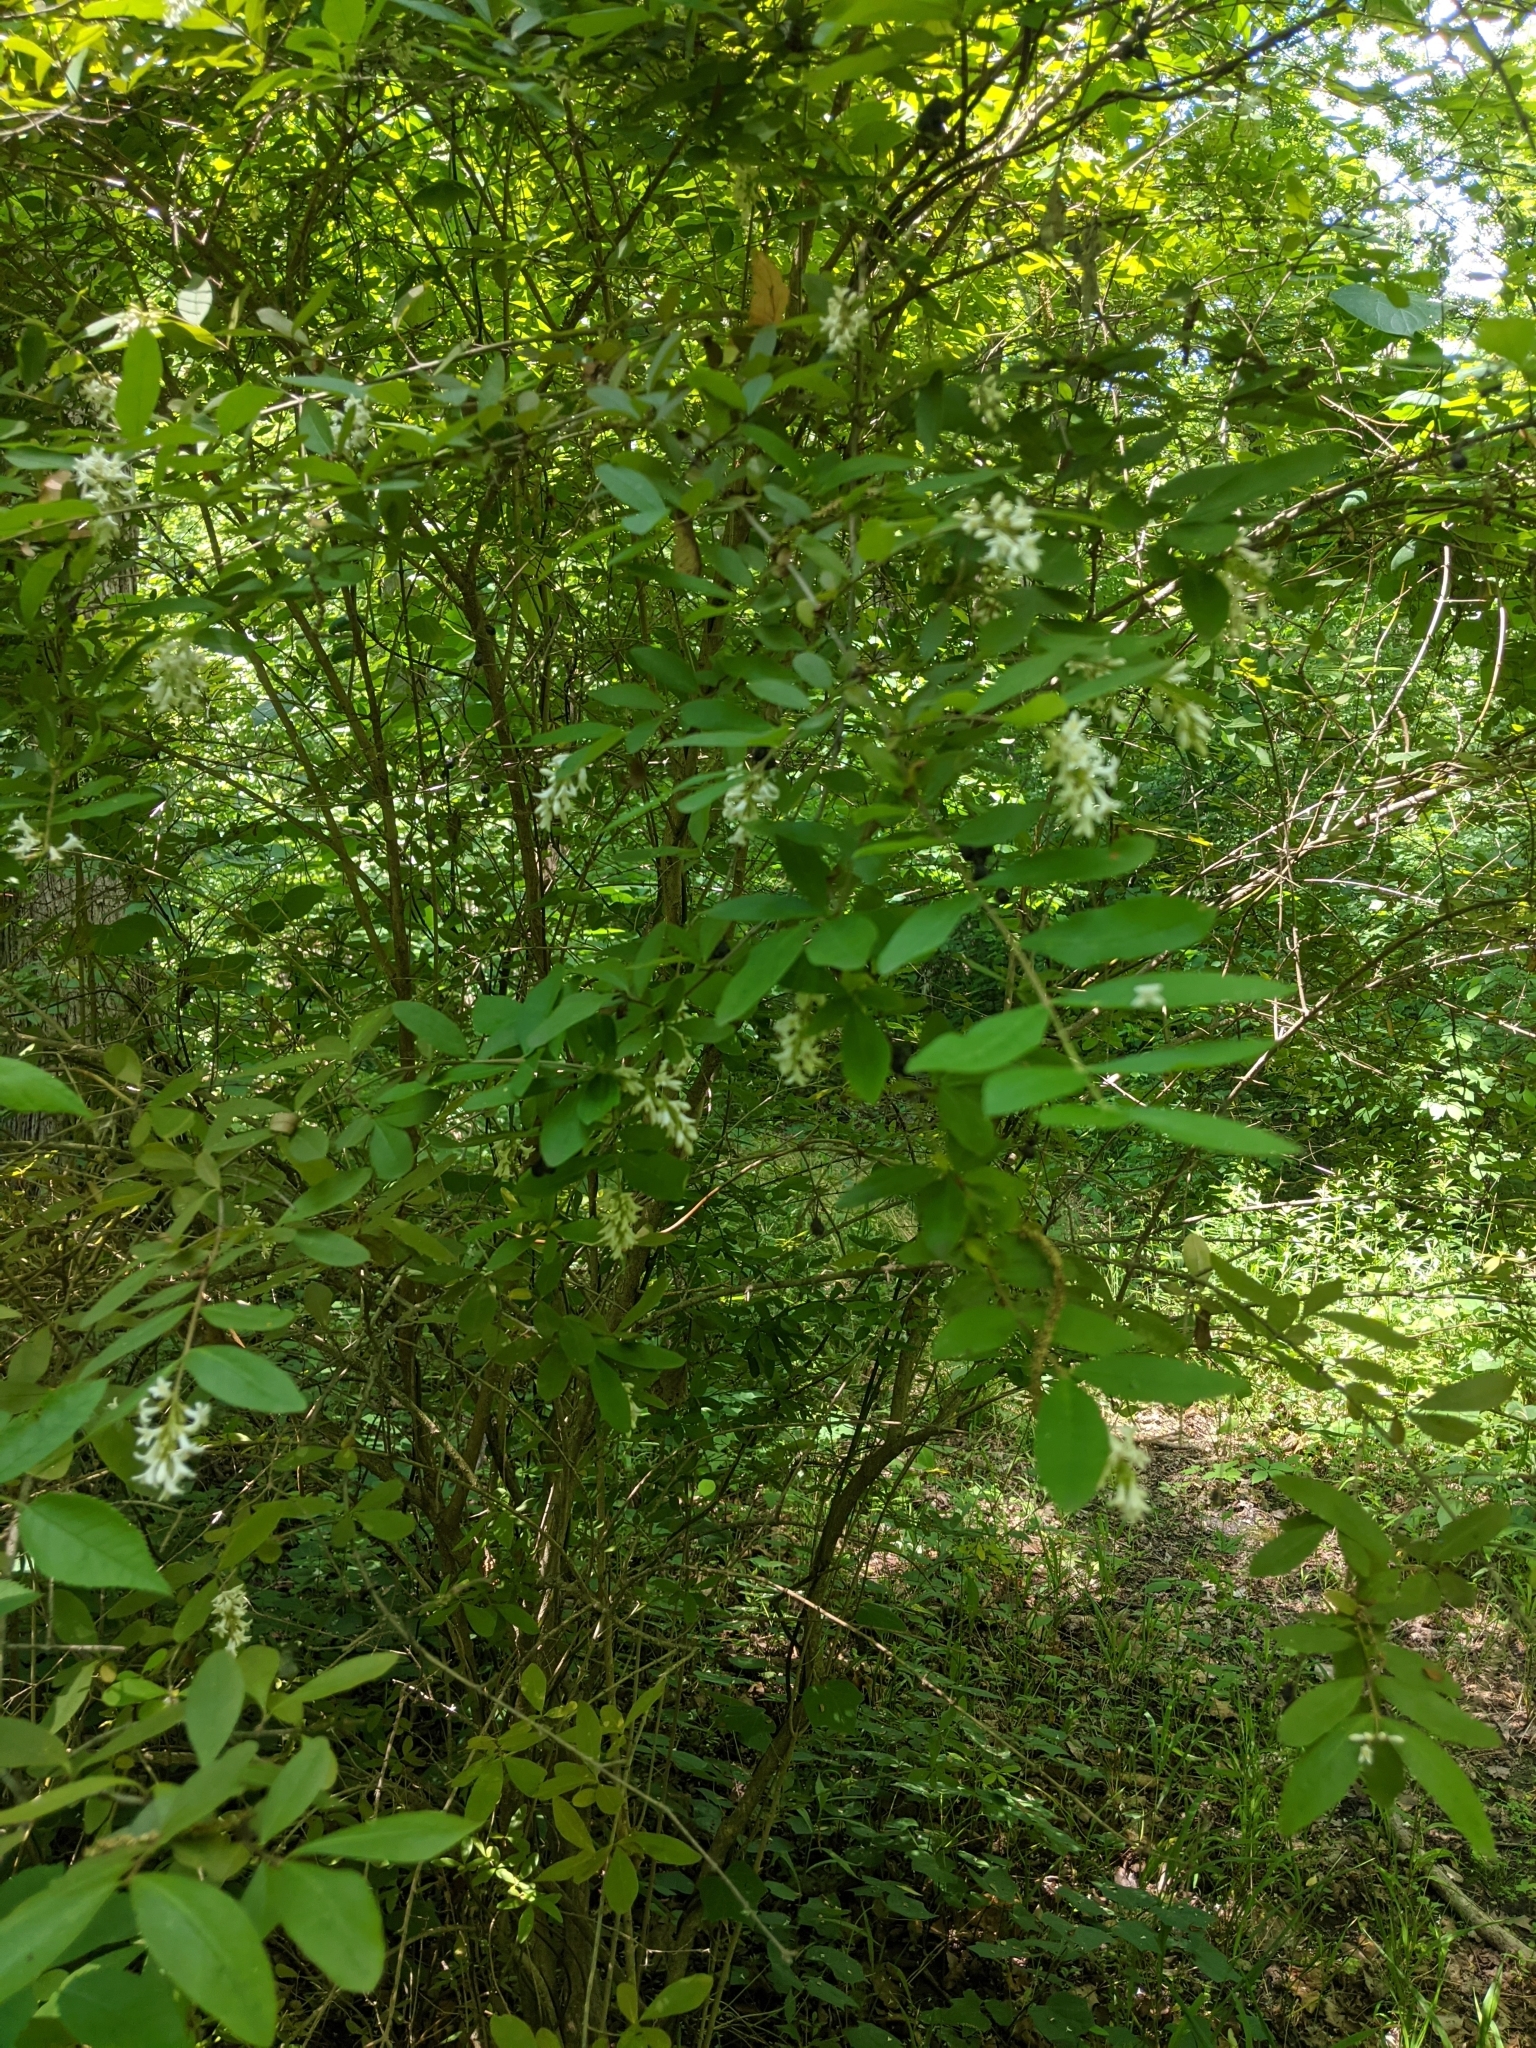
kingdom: Plantae
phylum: Tracheophyta
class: Magnoliopsida
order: Lamiales
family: Oleaceae
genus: Ligustrum
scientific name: Ligustrum obtusifolium
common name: Border privet
